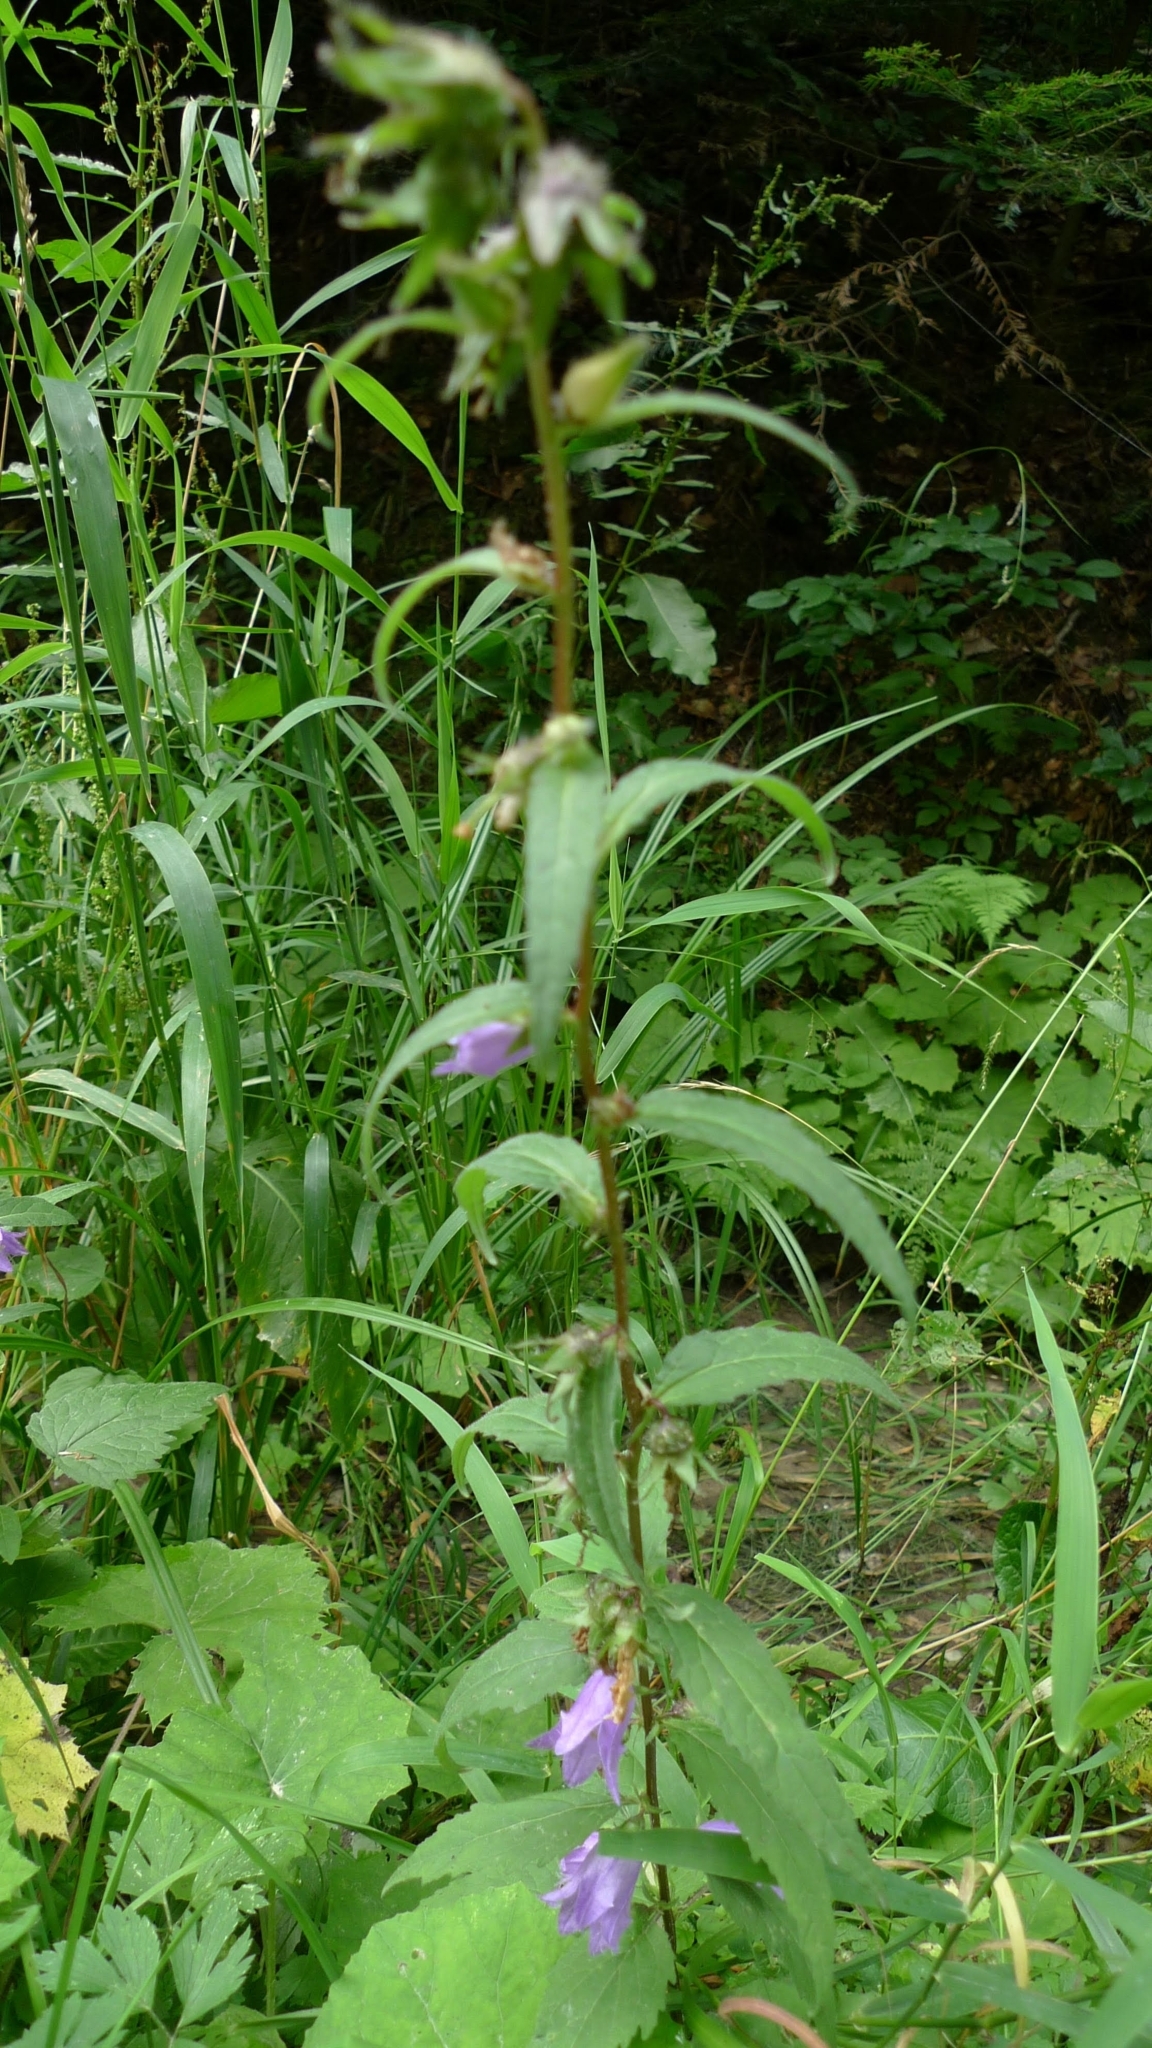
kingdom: Plantae
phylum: Tracheophyta
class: Magnoliopsida
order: Asterales
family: Campanulaceae
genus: Campanula
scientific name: Campanula trachelium
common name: Nettle-leaved bellflower
